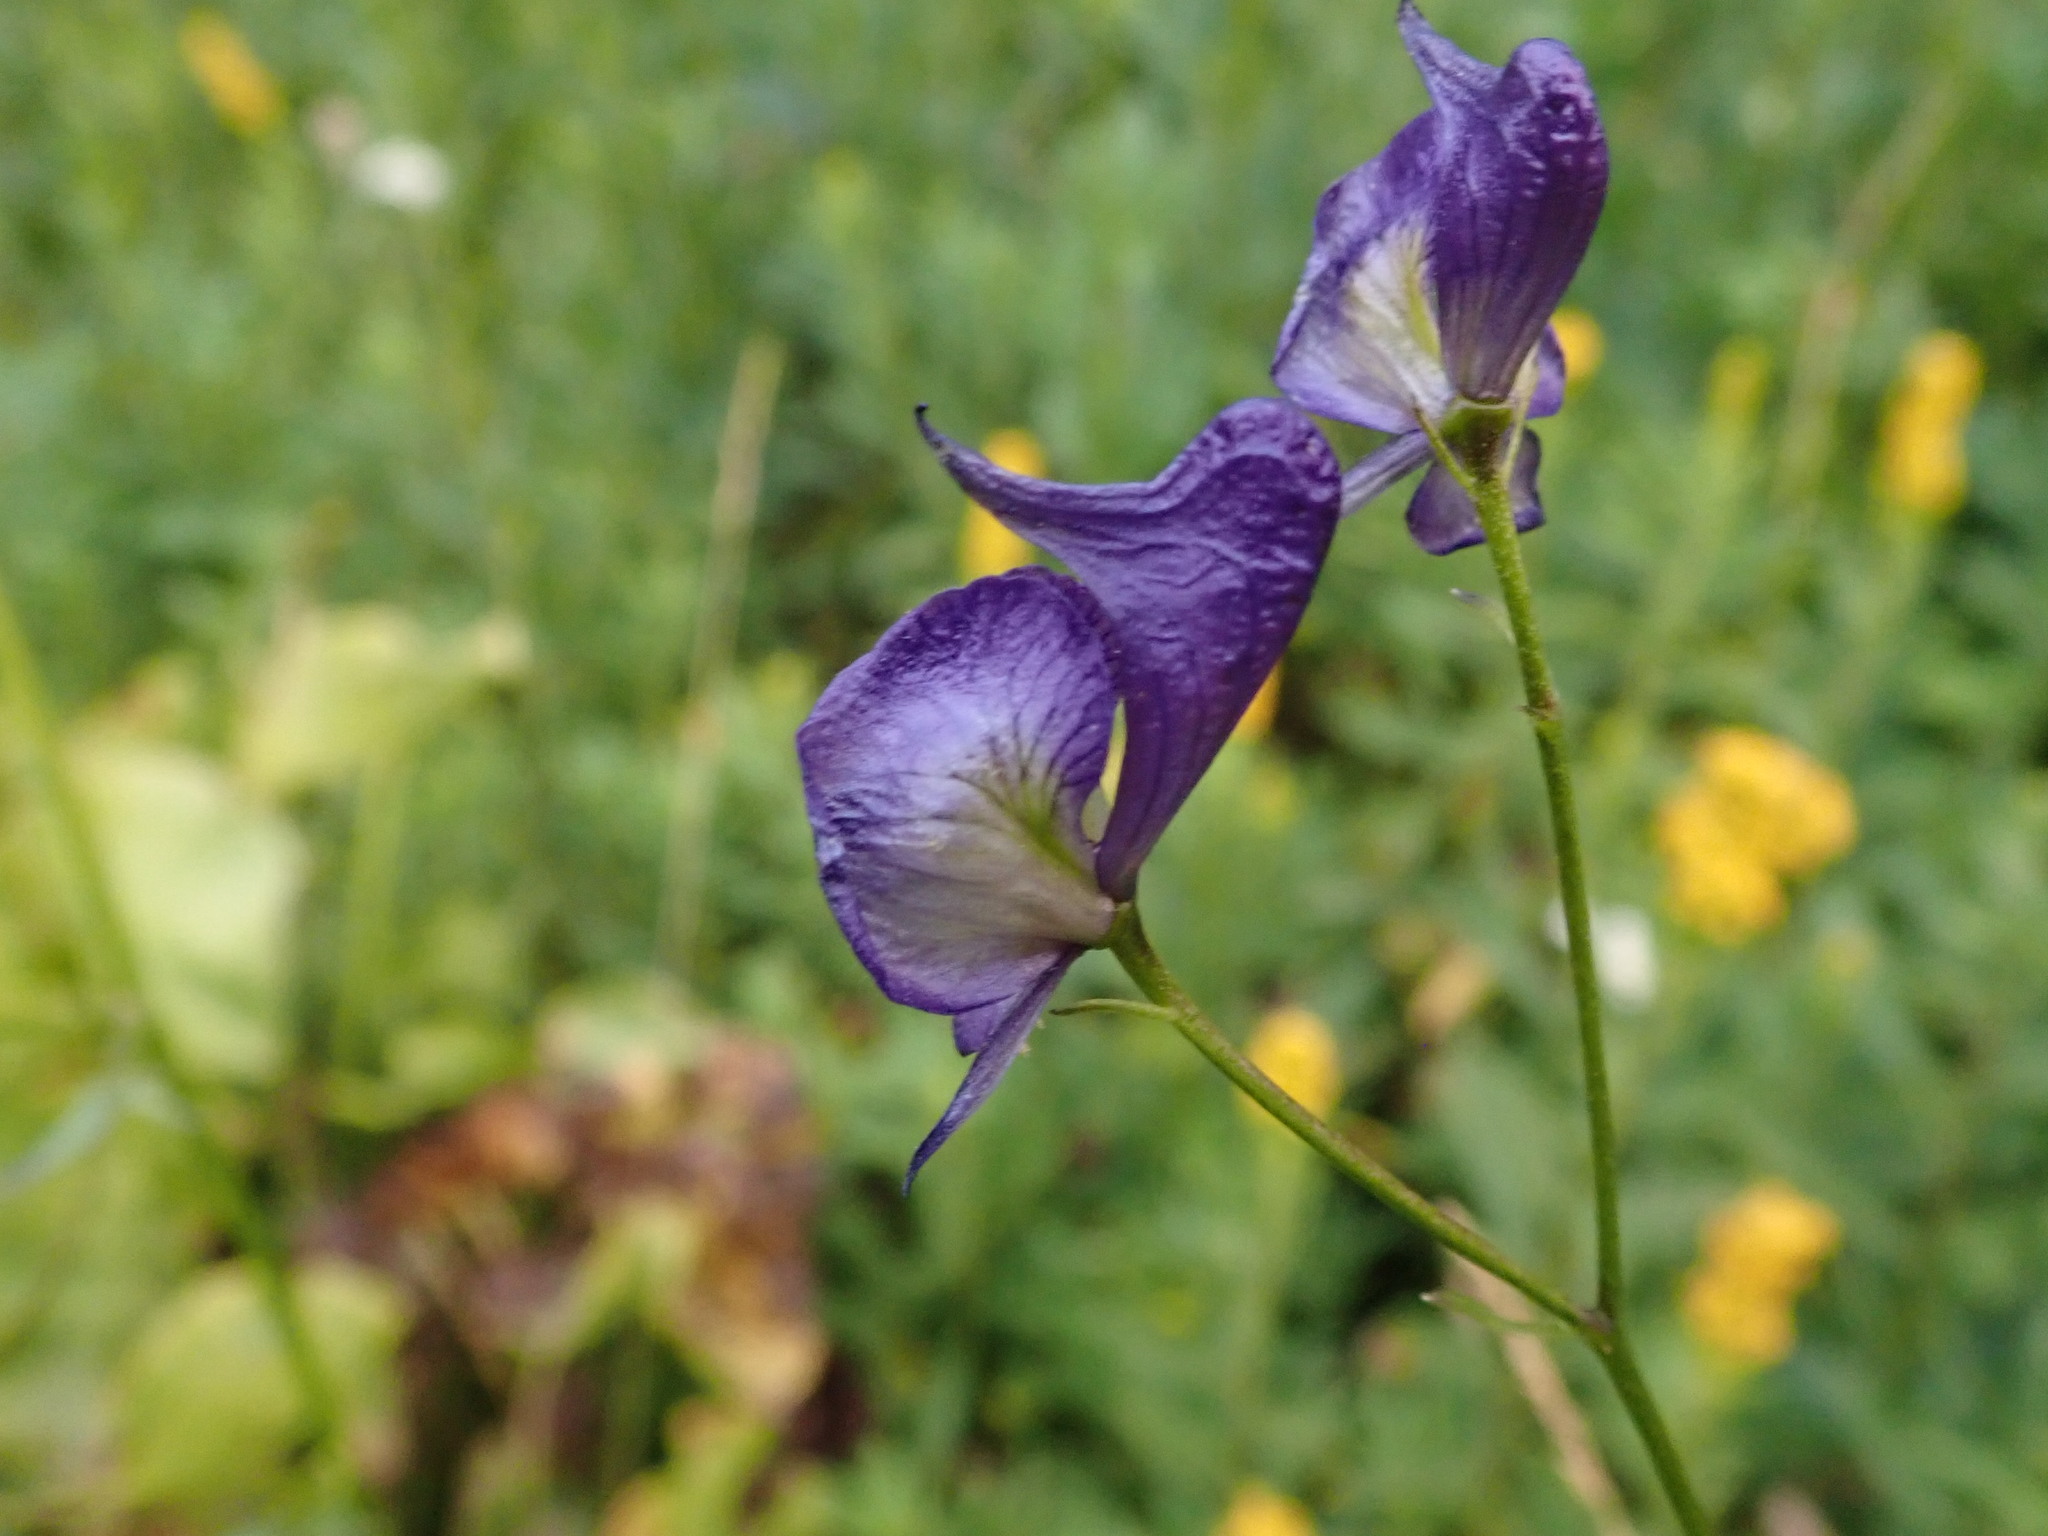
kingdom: Plantae
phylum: Tracheophyta
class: Magnoliopsida
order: Ranunculales
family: Ranunculaceae
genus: Aconitum
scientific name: Aconitum columbianum
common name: Columbia aconite
